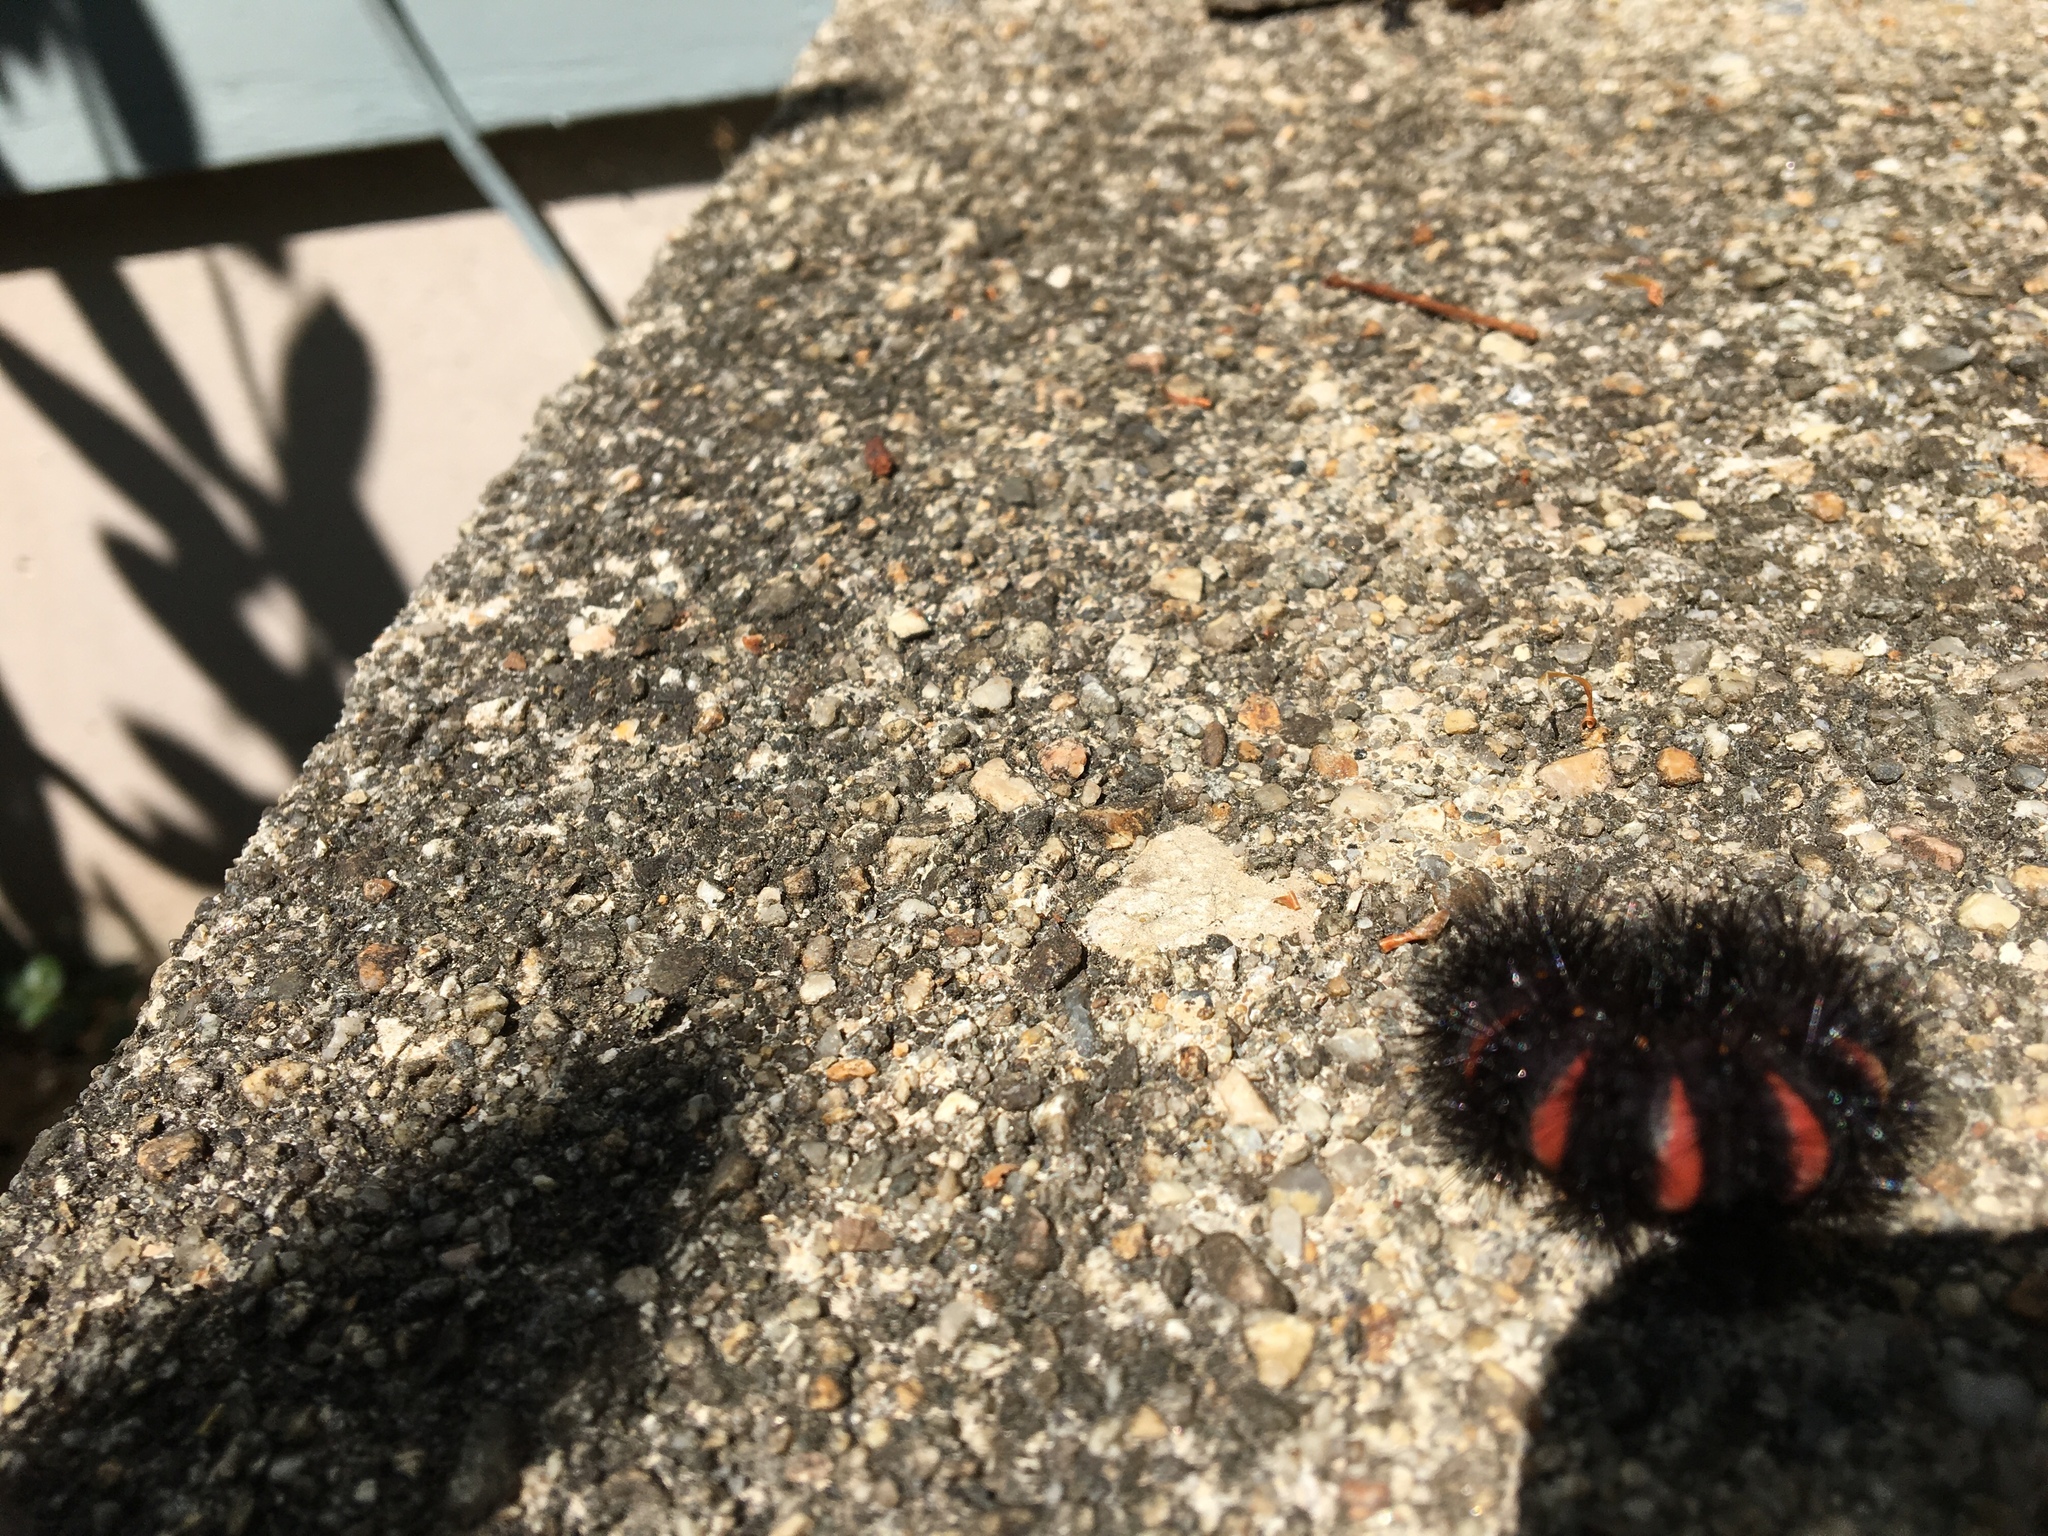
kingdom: Animalia
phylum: Arthropoda
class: Insecta
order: Lepidoptera
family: Erebidae
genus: Hypercompe
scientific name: Hypercompe scribonia
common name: Giant leopard moth
